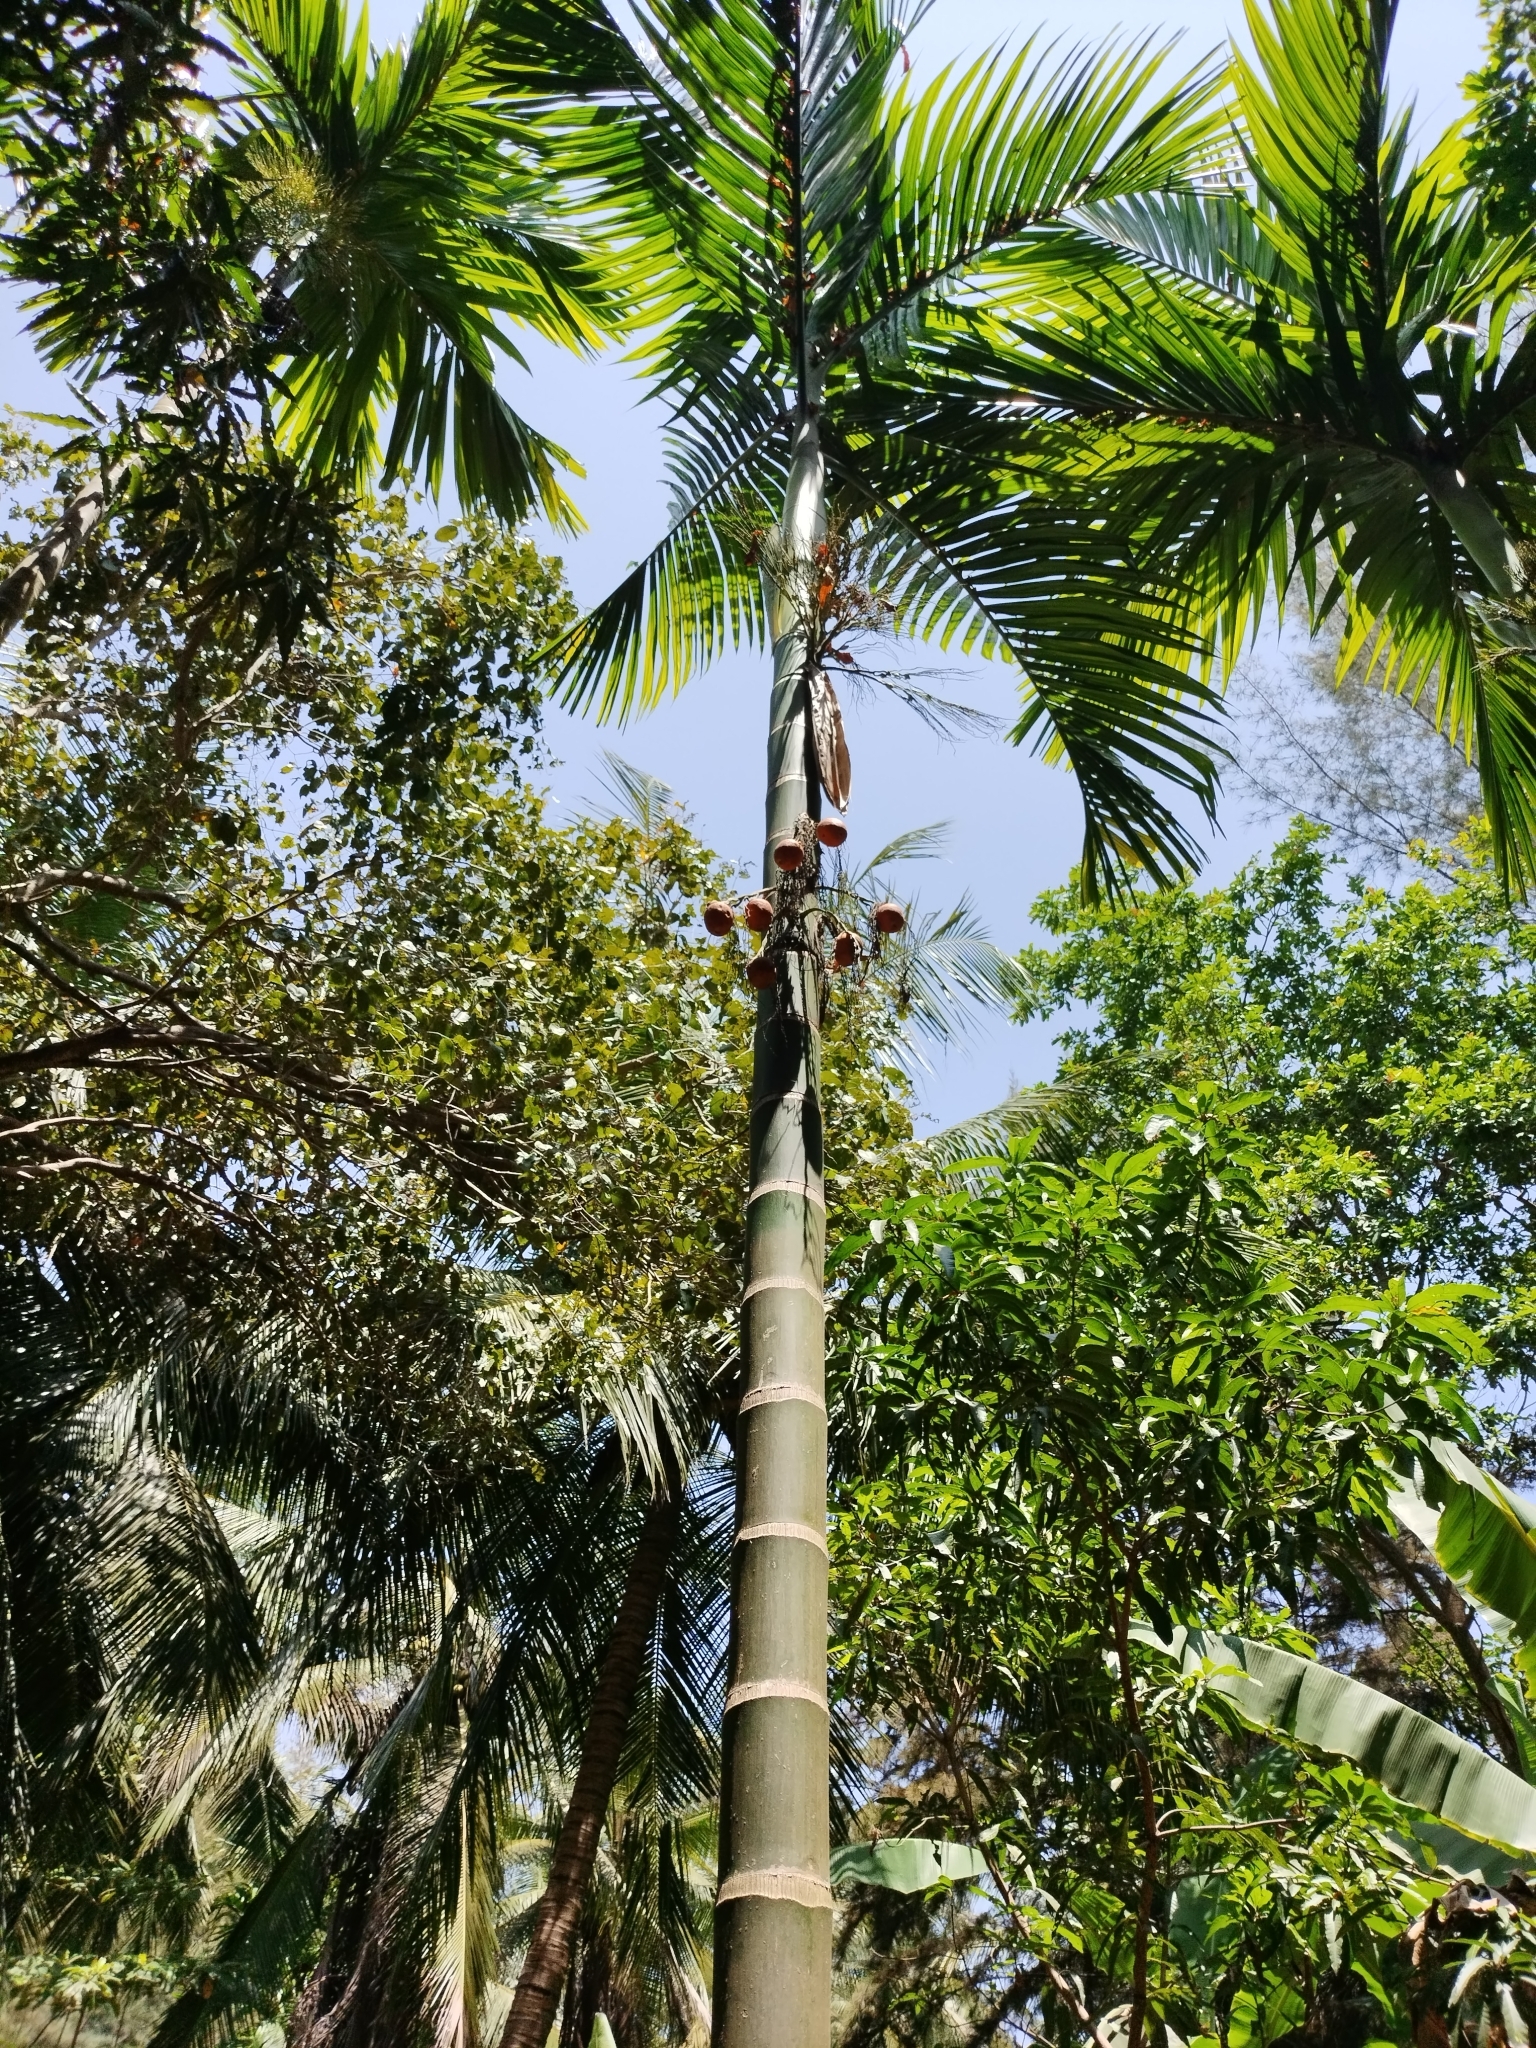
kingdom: Plantae
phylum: Tracheophyta
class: Liliopsida
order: Arecales
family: Arecaceae
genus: Areca
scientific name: Areca catechu
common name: Indian-nut
